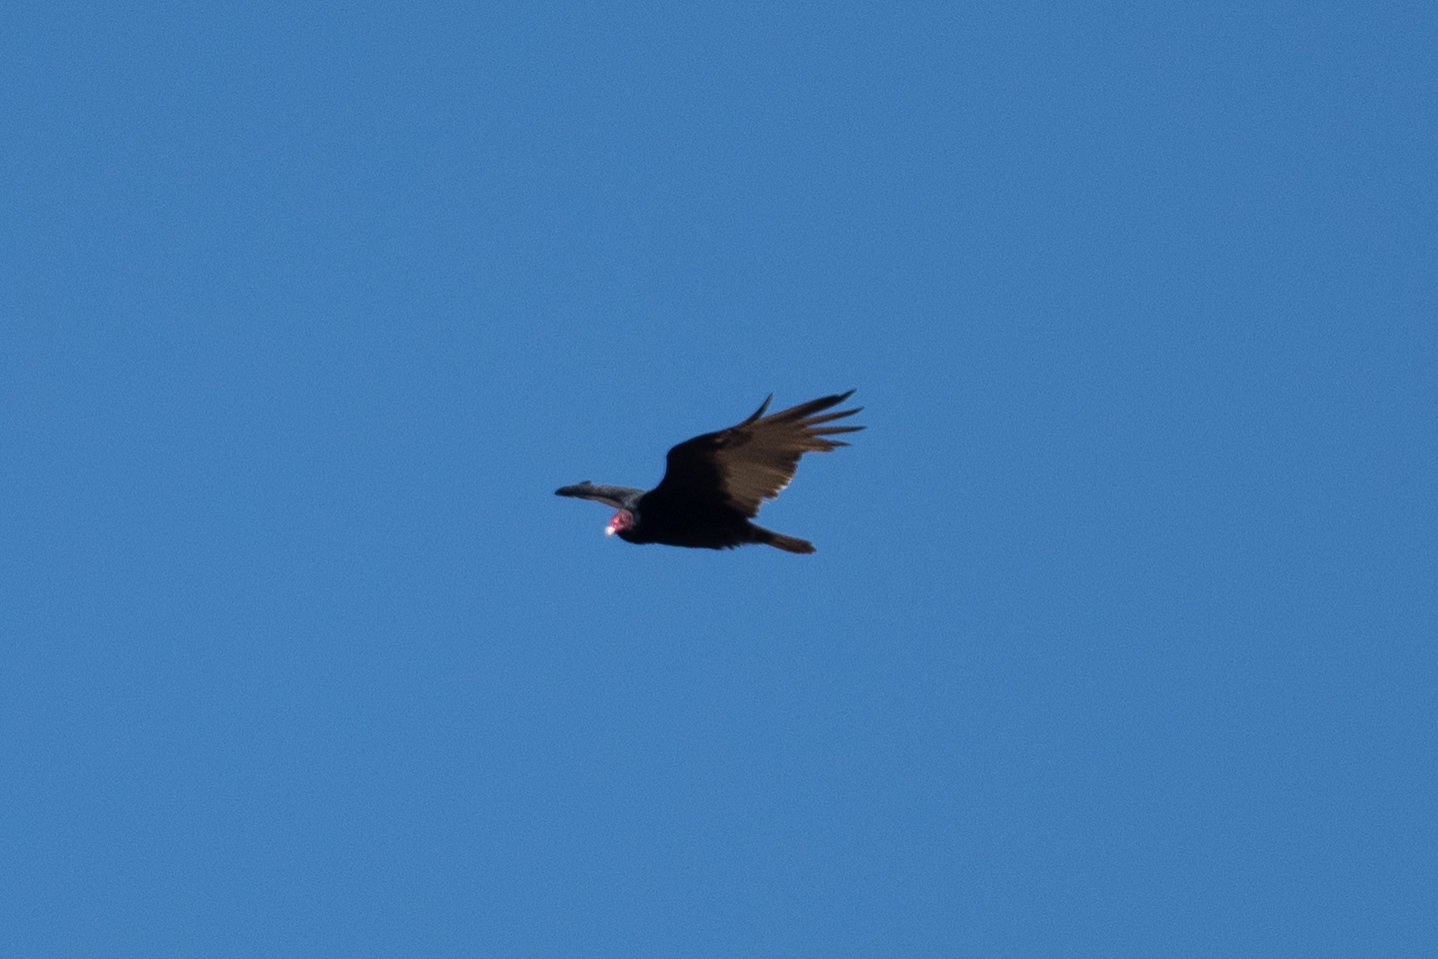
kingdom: Animalia
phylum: Chordata
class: Aves
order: Accipitriformes
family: Cathartidae
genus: Cathartes
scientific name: Cathartes aura
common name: Turkey vulture
